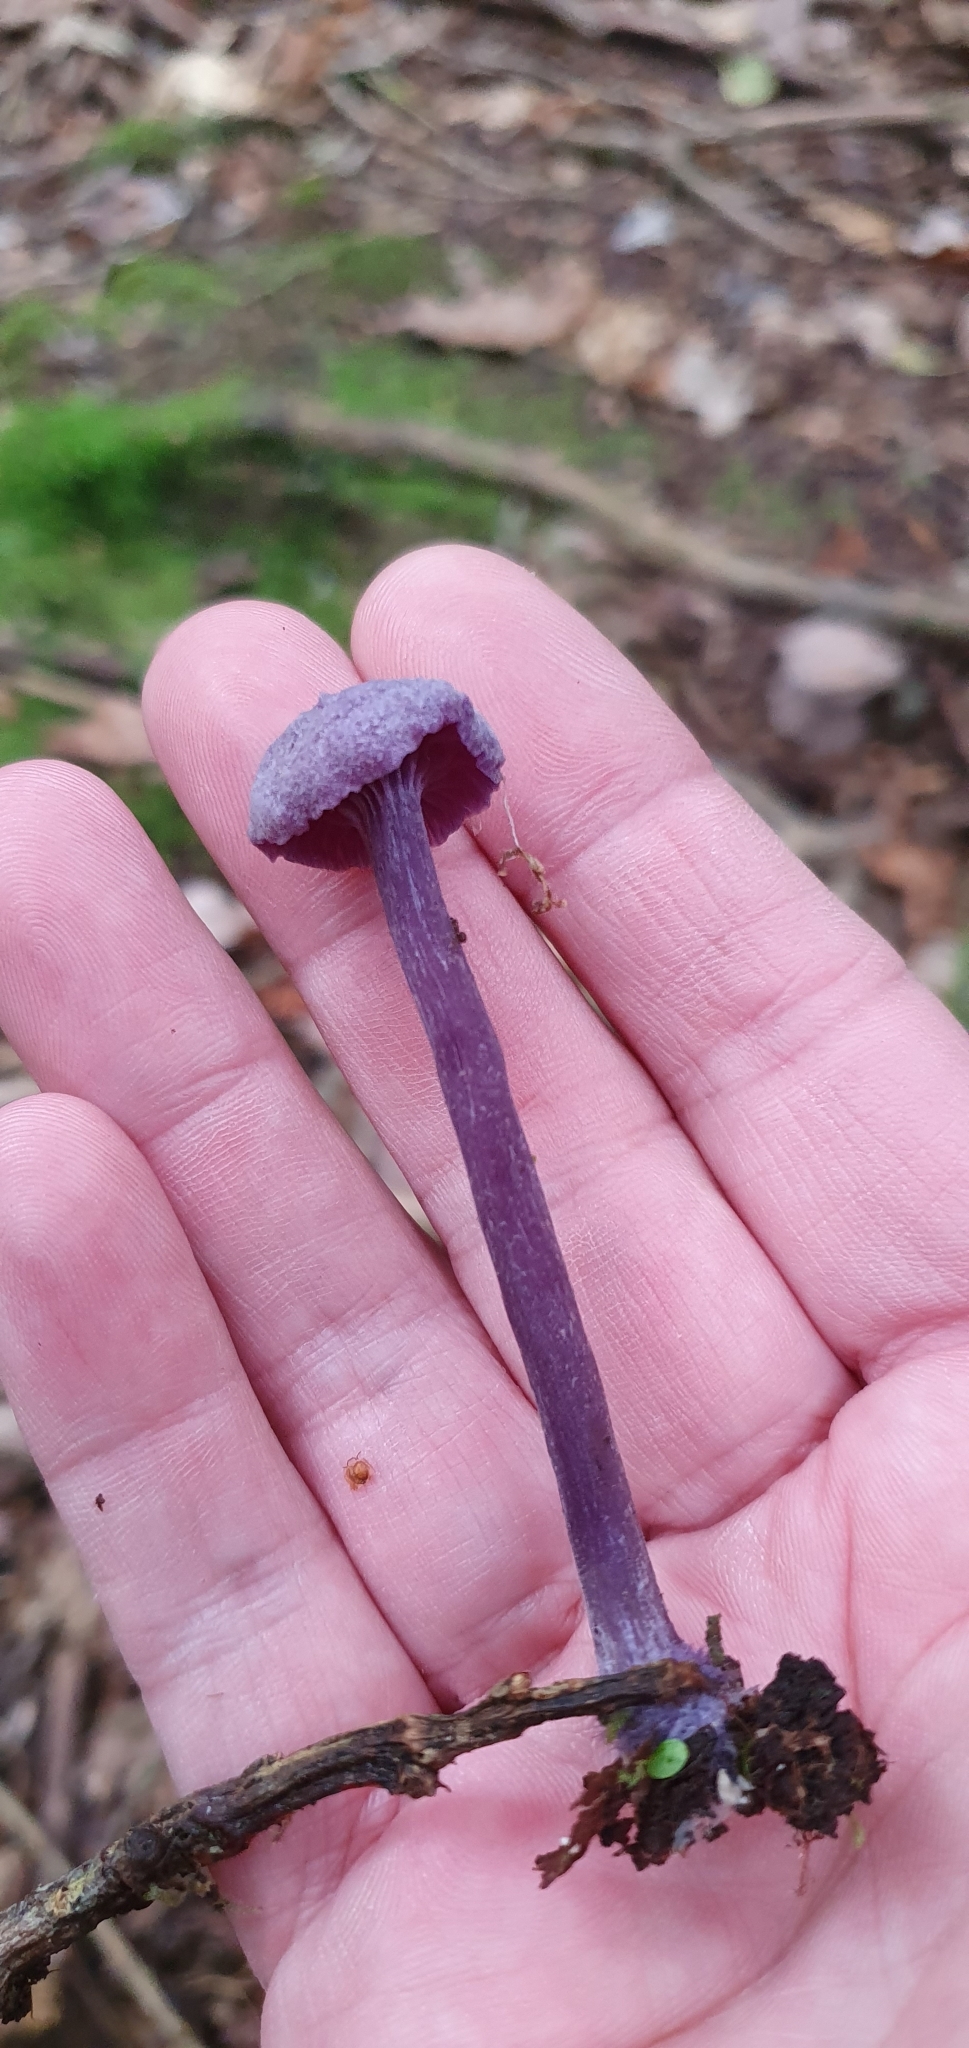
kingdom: Fungi
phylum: Basidiomycota
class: Agaricomycetes
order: Agaricales
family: Hydnangiaceae
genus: Laccaria
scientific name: Laccaria amethystina
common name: Amethyst deceiver
